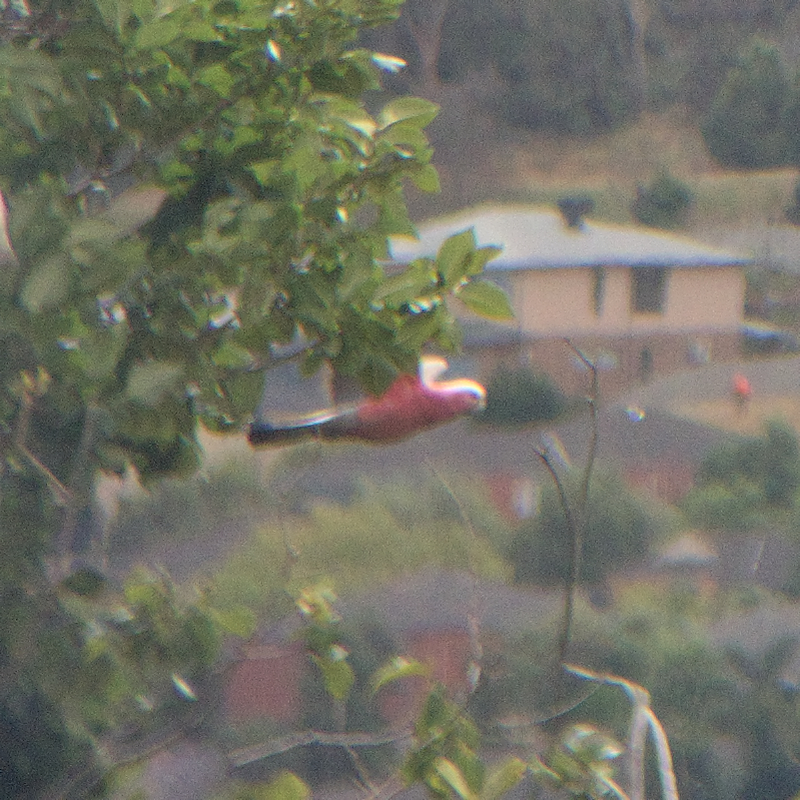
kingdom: Animalia
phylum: Chordata
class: Aves
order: Psittaciformes
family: Psittacidae
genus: Eolophus
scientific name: Eolophus roseicapilla
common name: Galah
